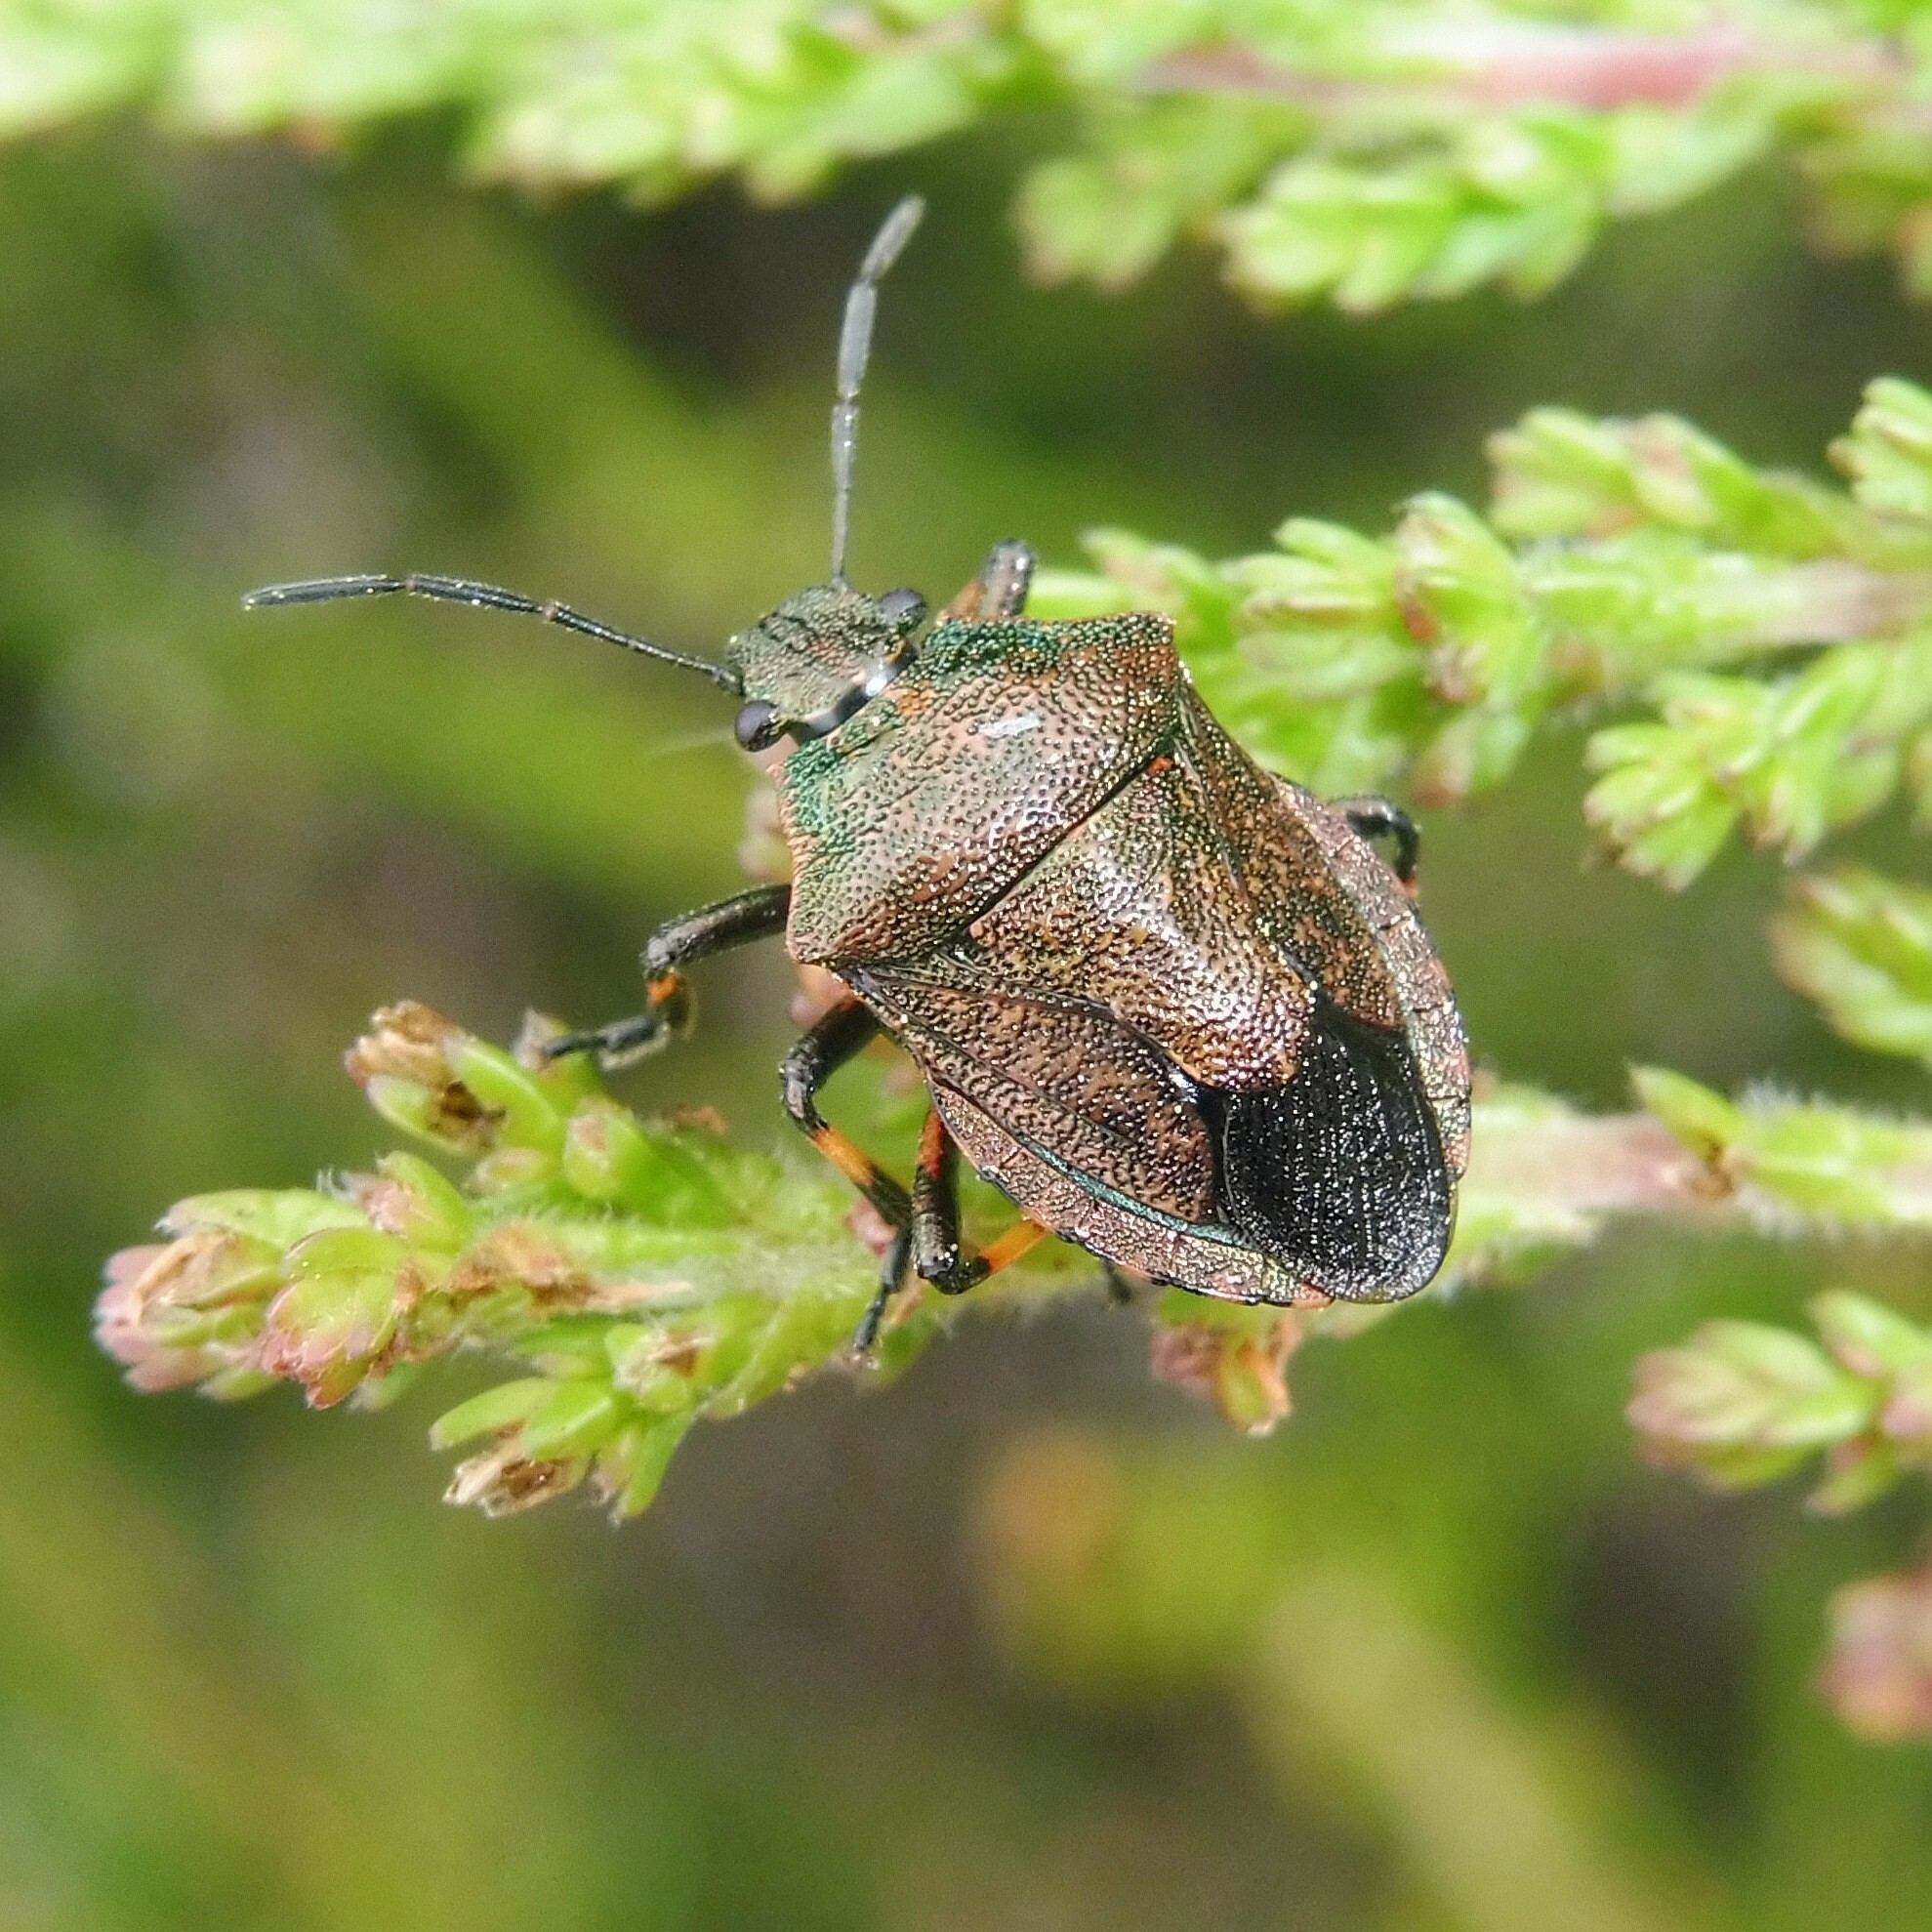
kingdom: Animalia
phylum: Arthropoda
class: Insecta
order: Hemiptera
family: Pentatomidae
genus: Rhacognathus
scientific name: Rhacognathus punctatus
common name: Heather bug
